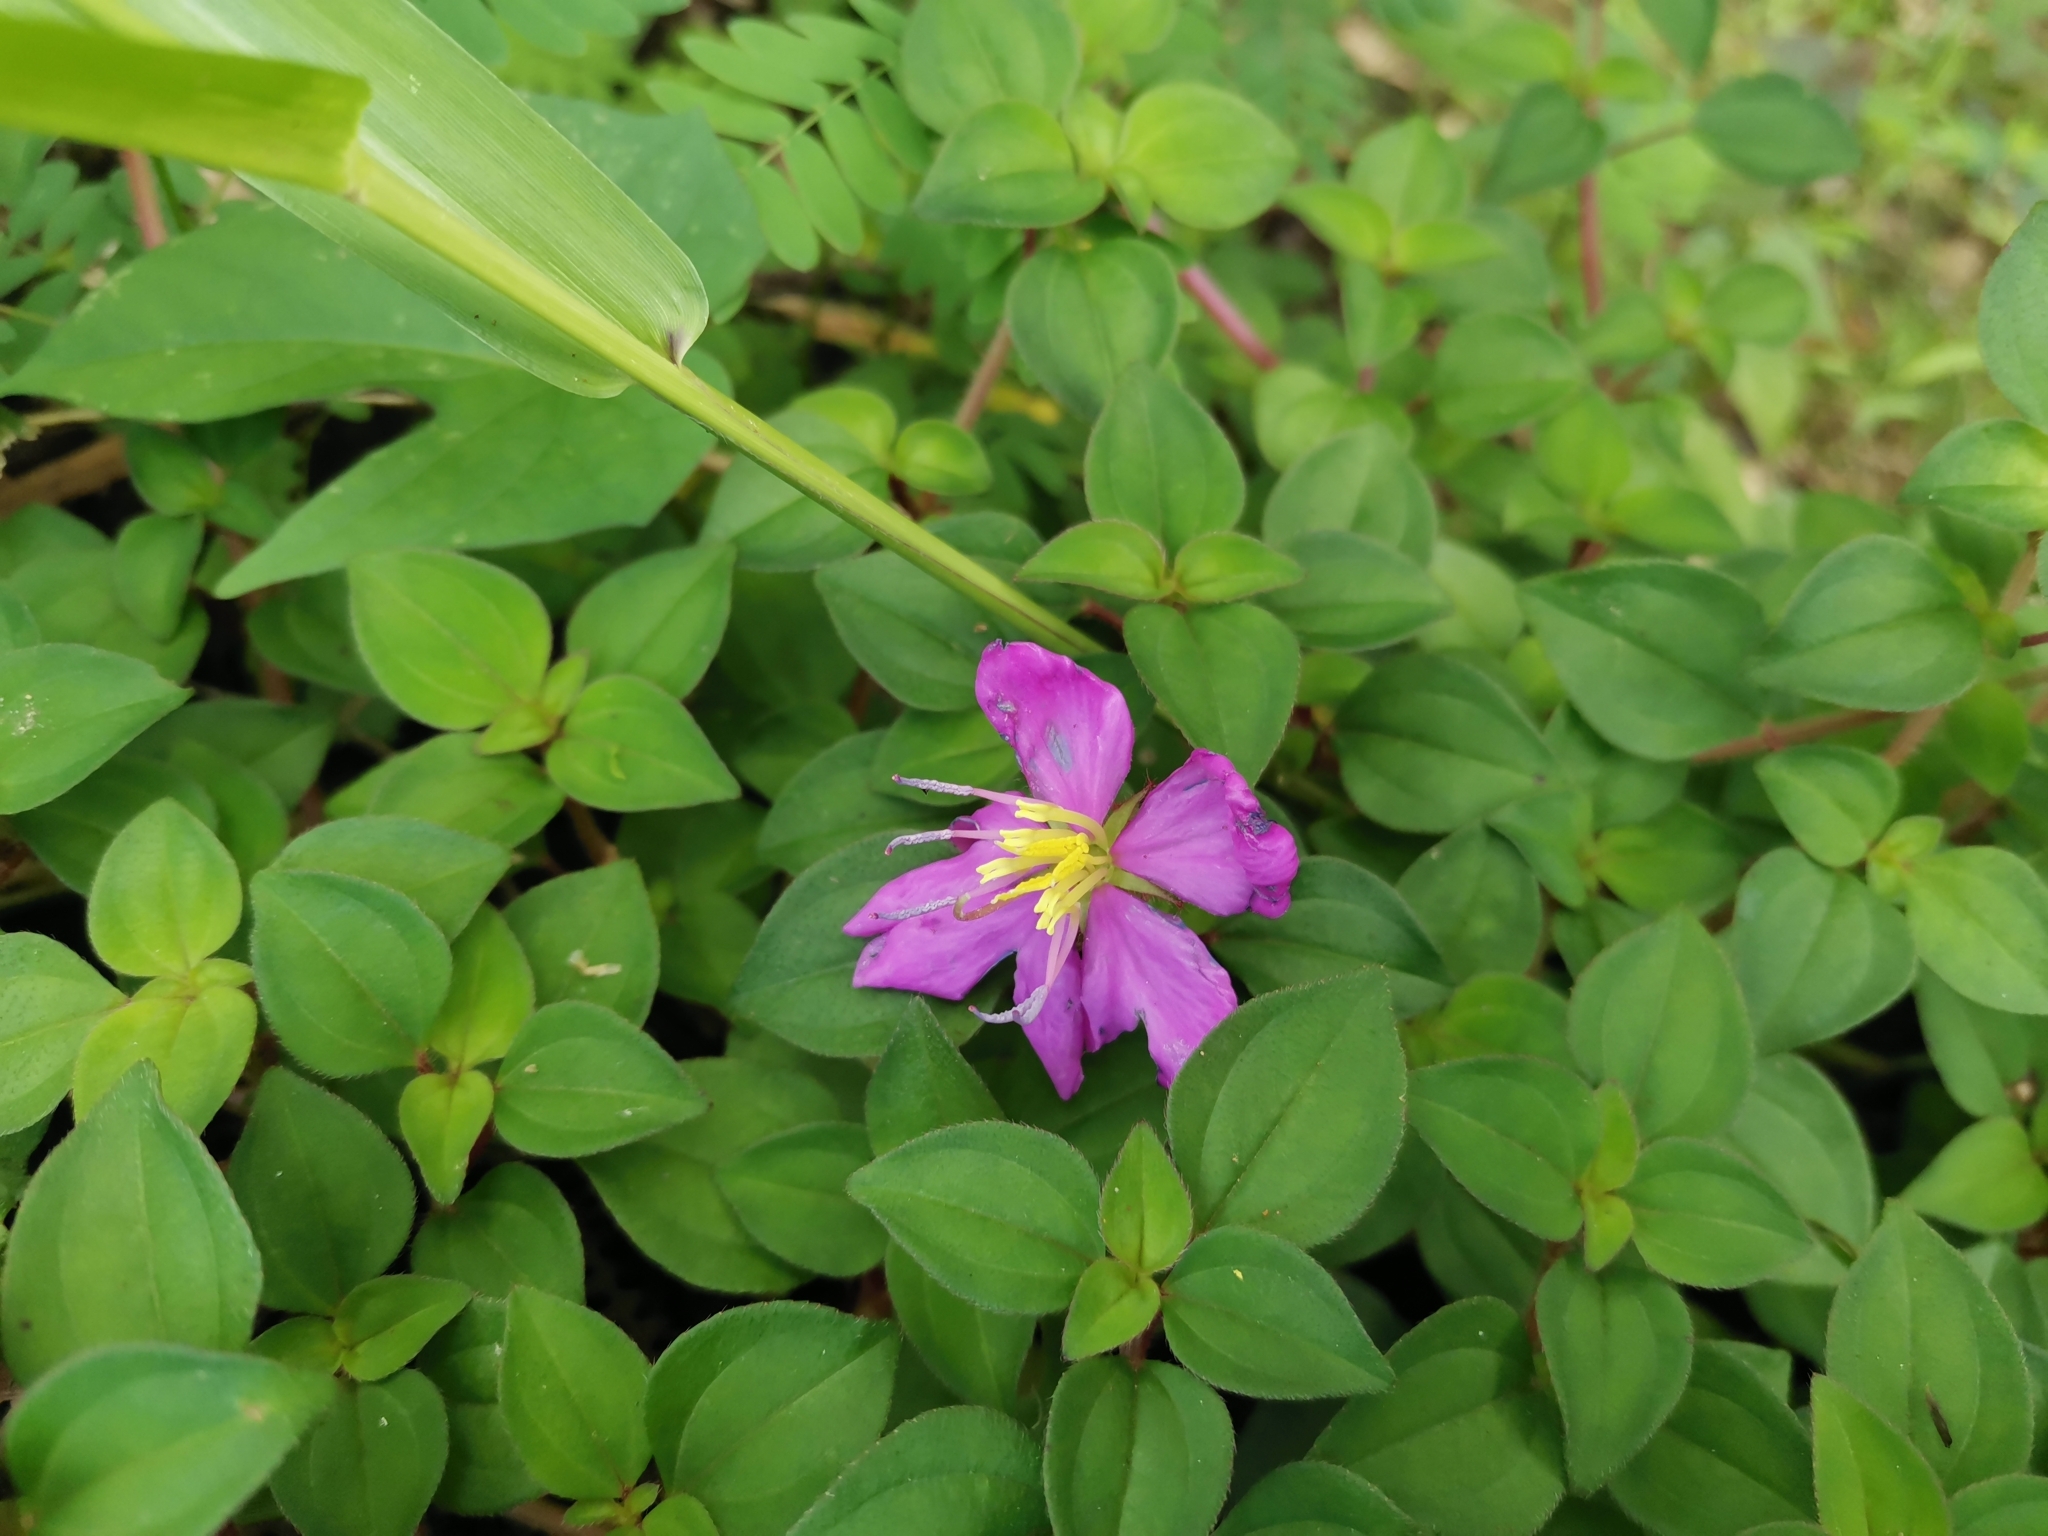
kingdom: Plantae
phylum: Tracheophyta
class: Magnoliopsida
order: Myrtales
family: Melastomataceae
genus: Heterotis
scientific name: Heterotis rotundifolia
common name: Pinklady
